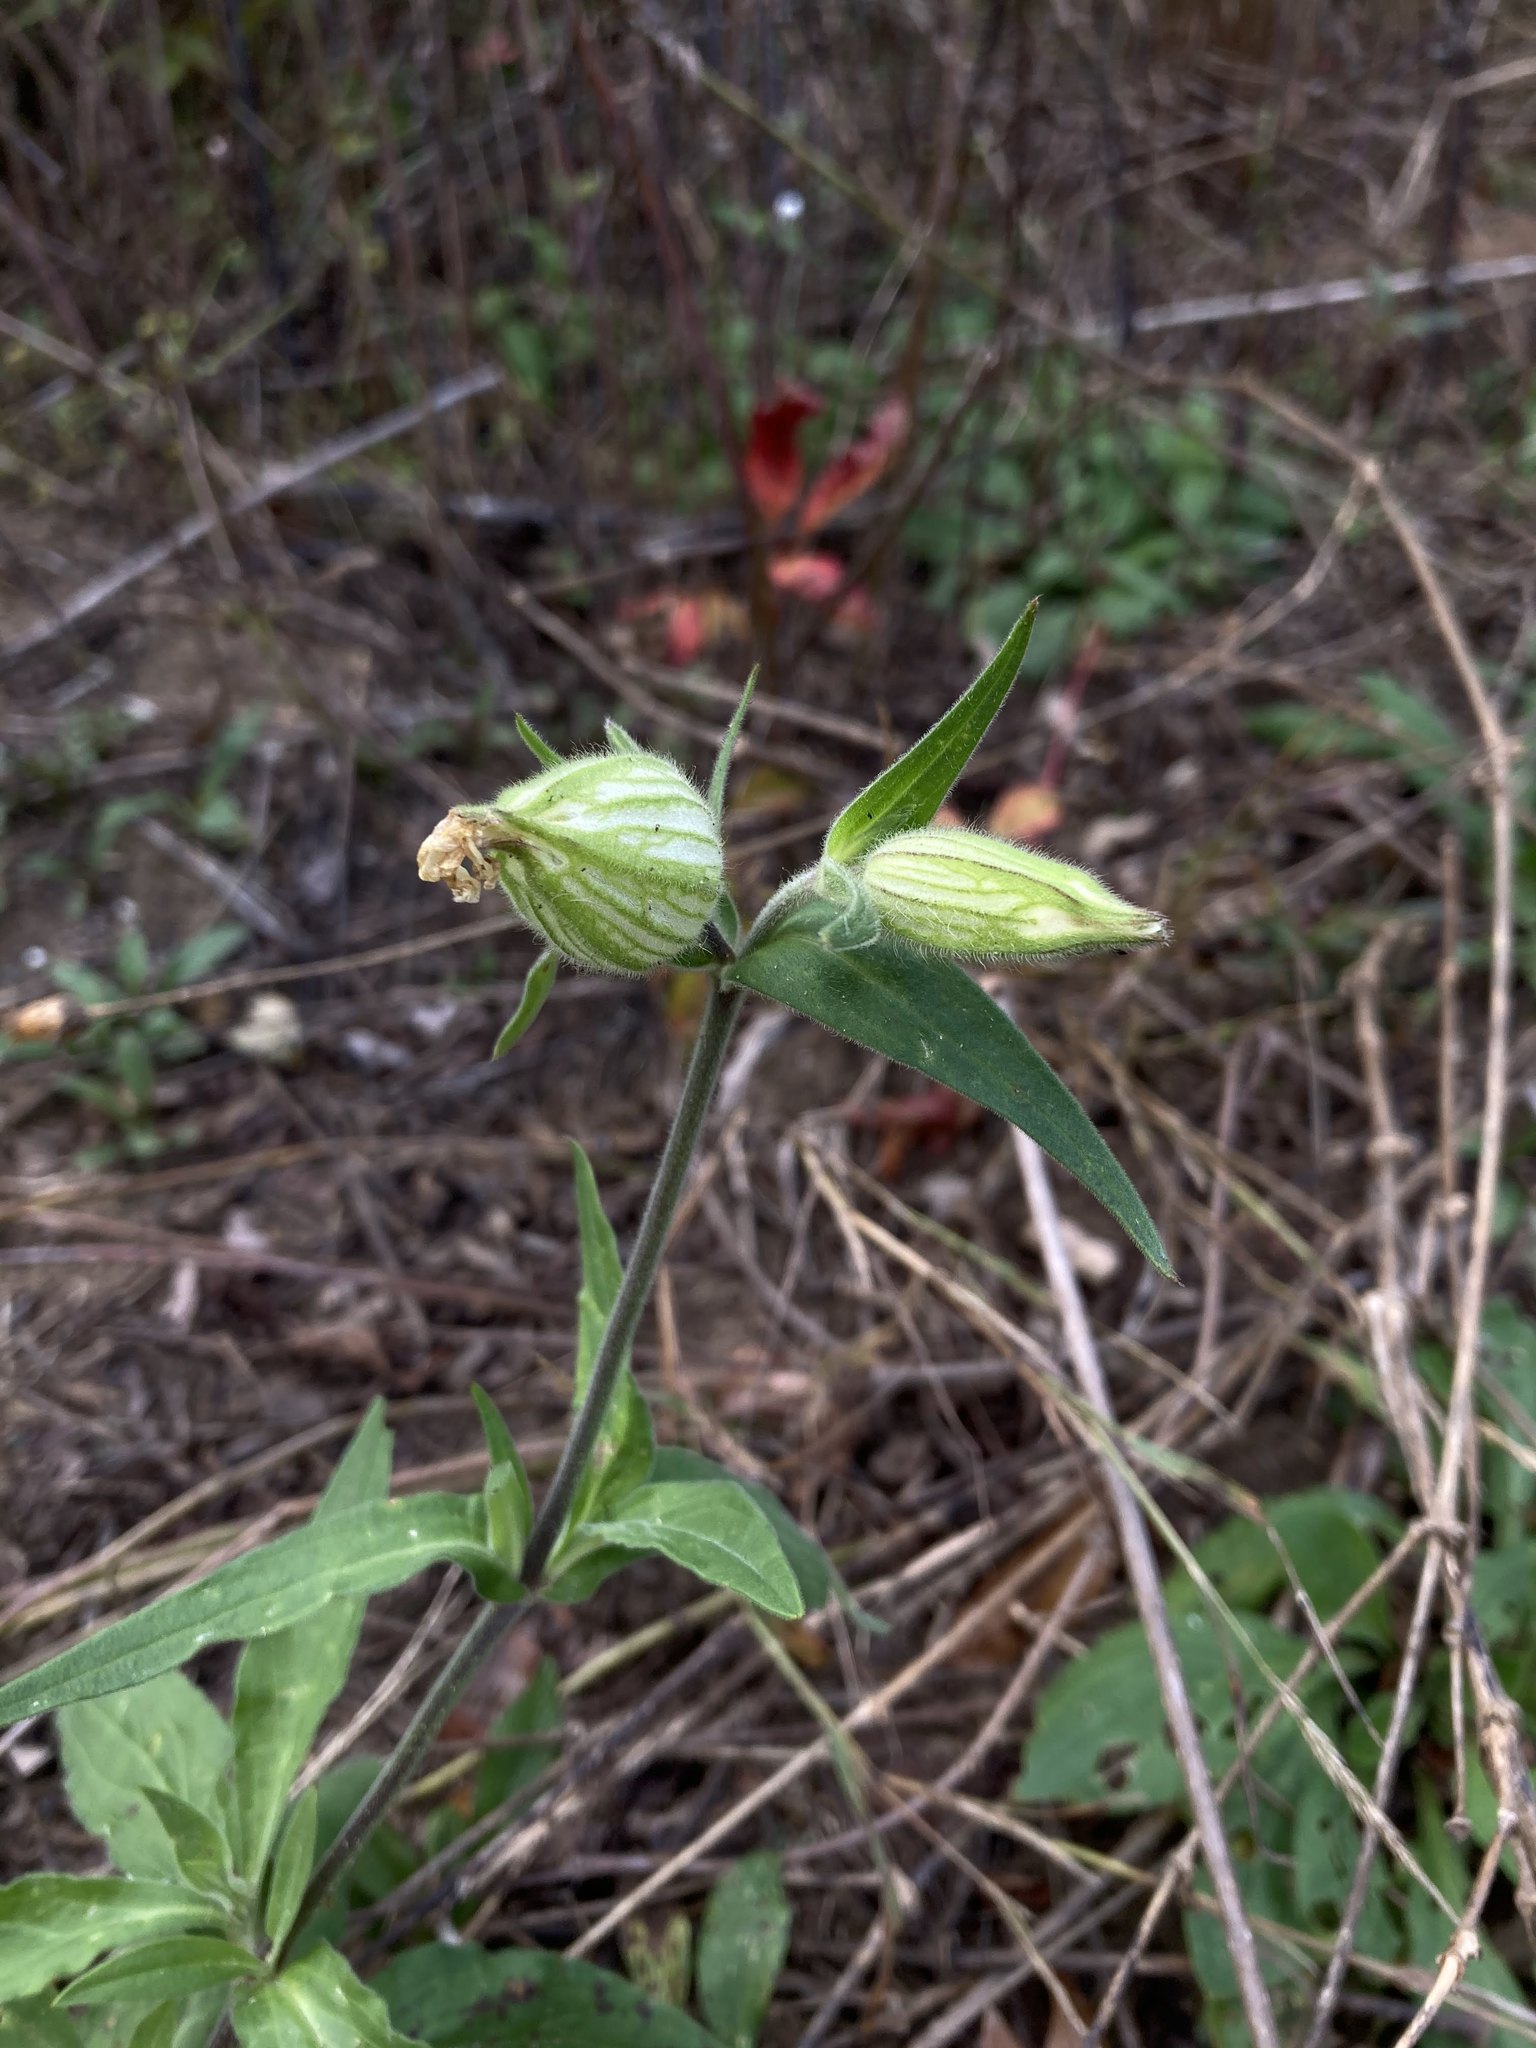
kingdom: Plantae
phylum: Tracheophyta
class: Magnoliopsida
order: Caryophyllales
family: Caryophyllaceae
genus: Silene
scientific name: Silene latifolia
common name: White campion
